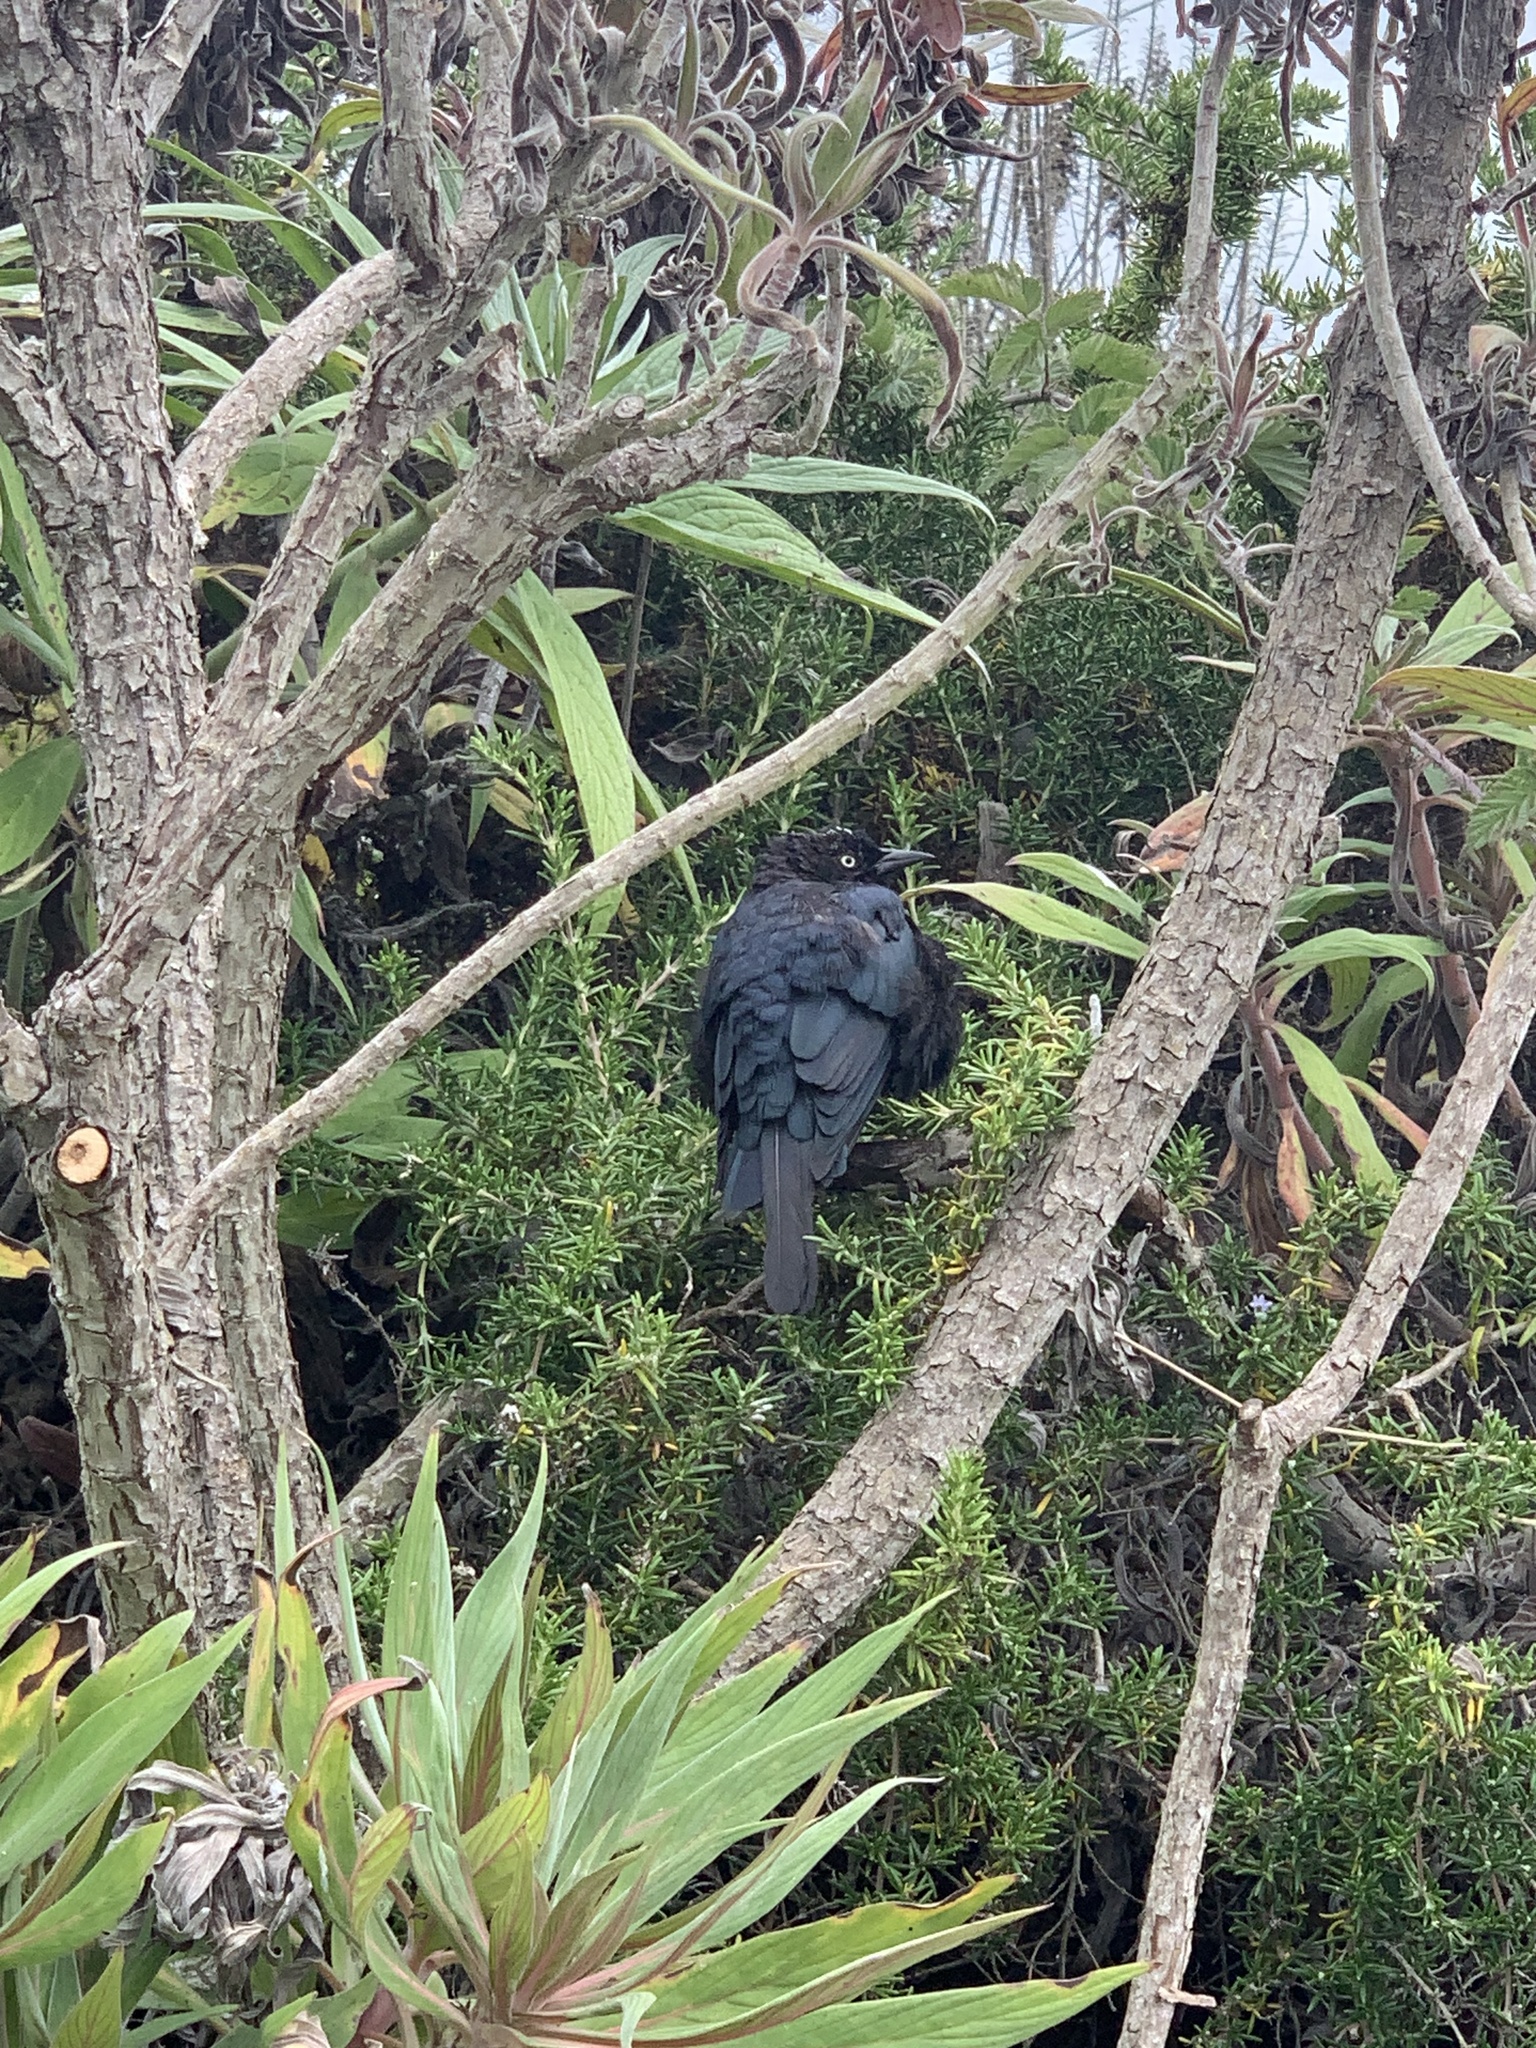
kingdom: Animalia
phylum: Chordata
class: Aves
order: Passeriformes
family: Icteridae
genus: Euphagus
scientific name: Euphagus cyanocephalus
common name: Brewer's blackbird
